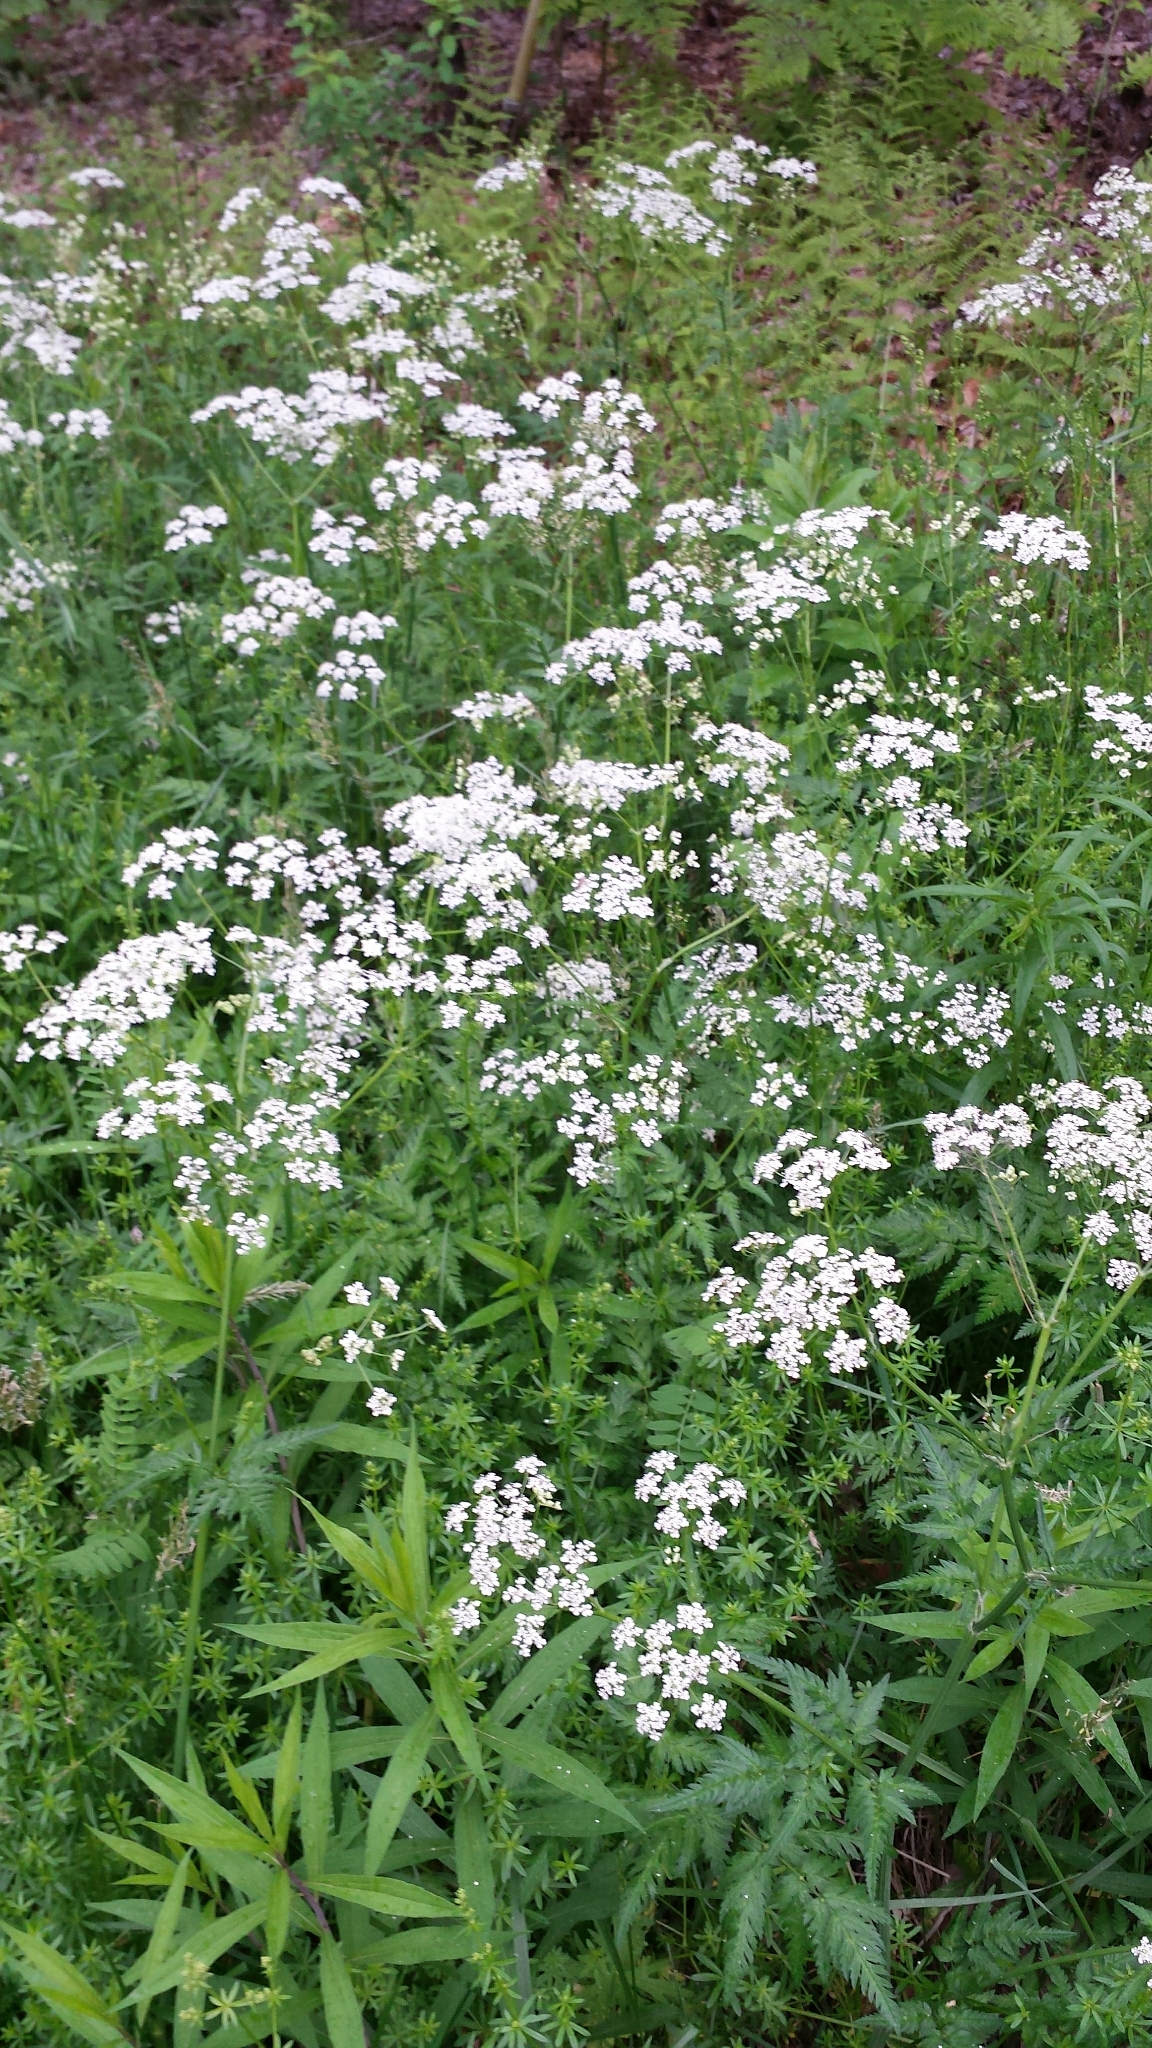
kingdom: Plantae
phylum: Tracheophyta
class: Magnoliopsida
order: Apiales
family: Apiaceae
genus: Anthriscus
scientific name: Anthriscus sylvestris
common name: Cow parsley
